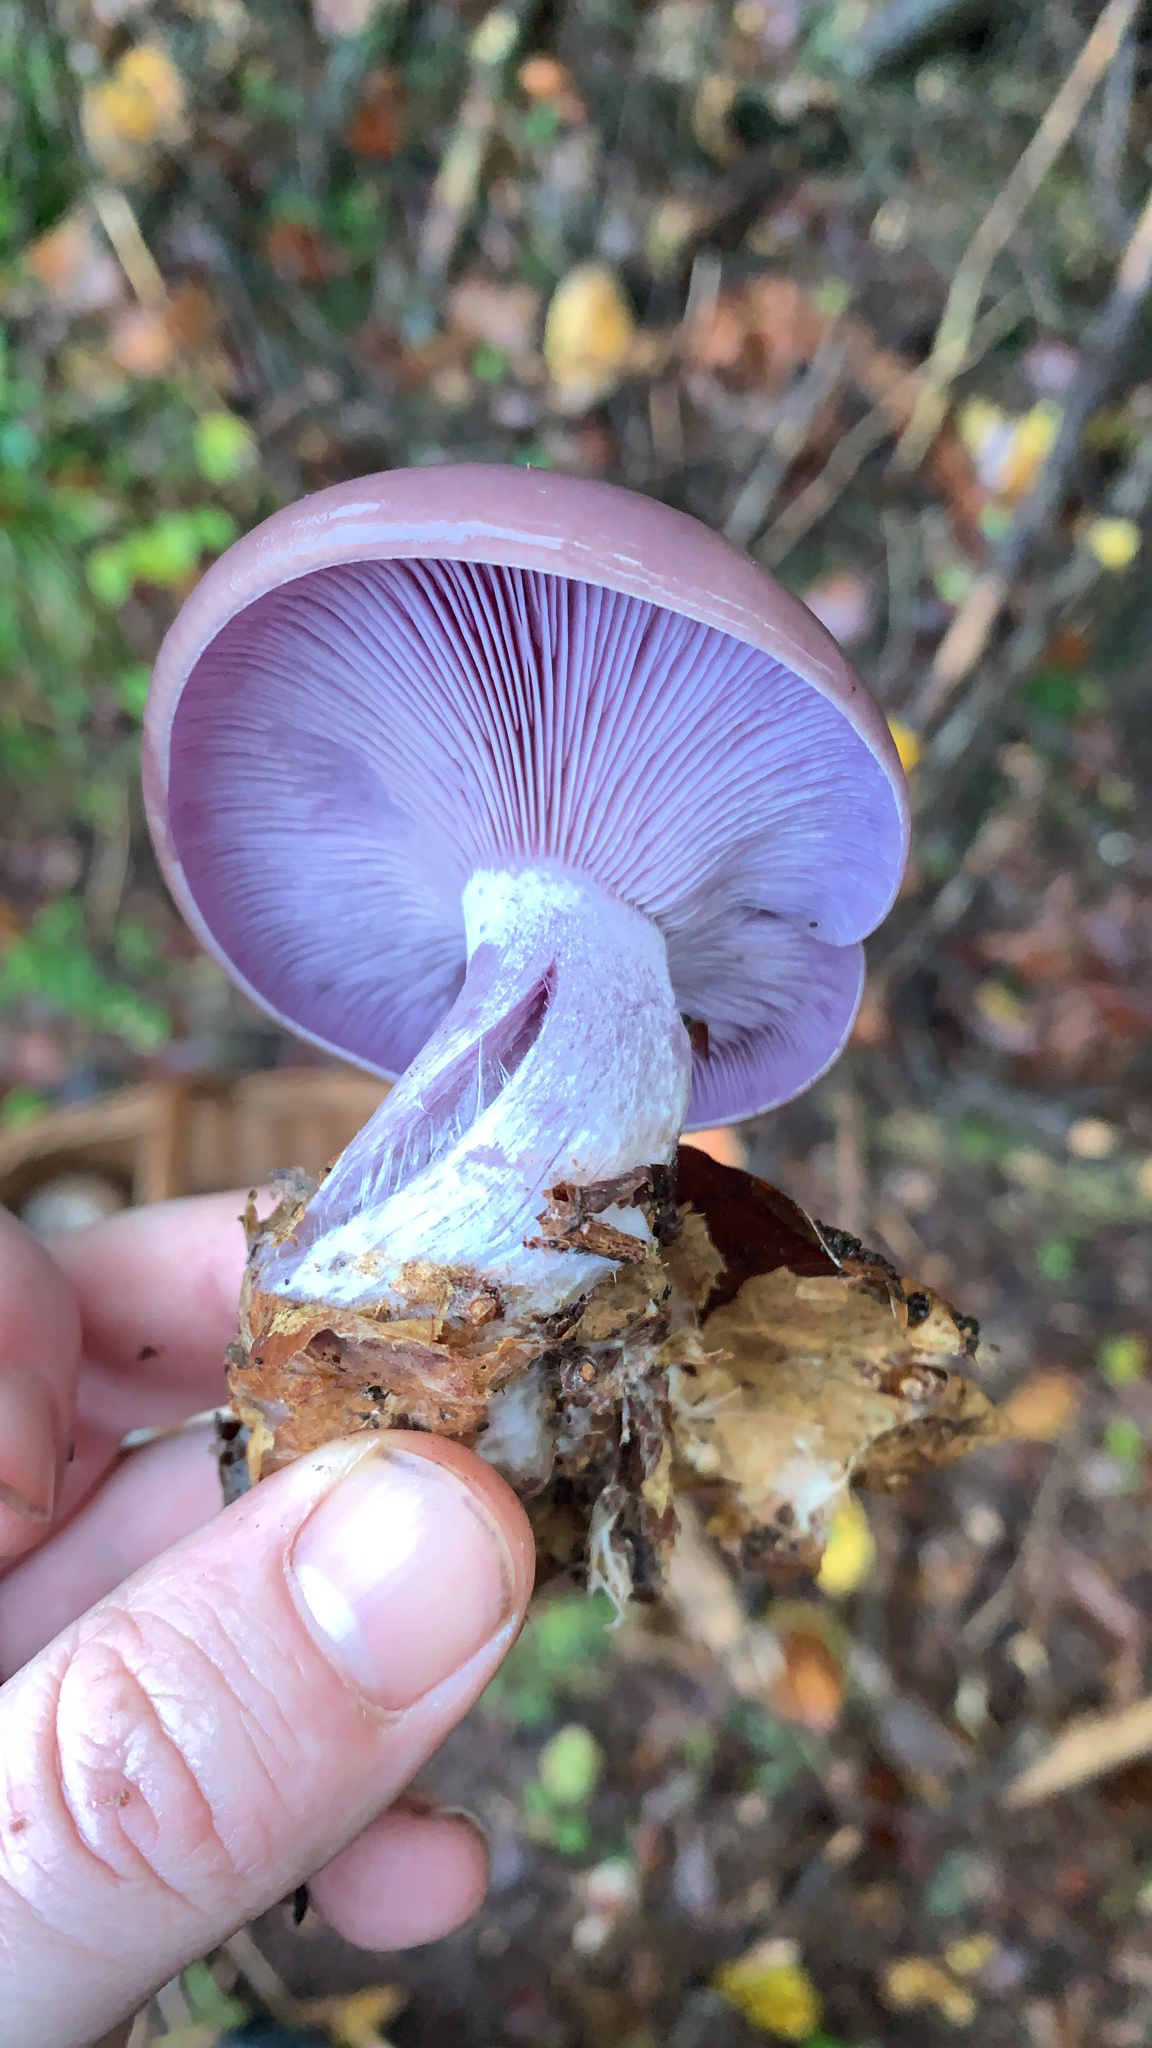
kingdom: Fungi
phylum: Basidiomycota
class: Agaricomycetes
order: Agaricales
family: Tricholomataceae
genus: Collybia
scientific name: Collybia
